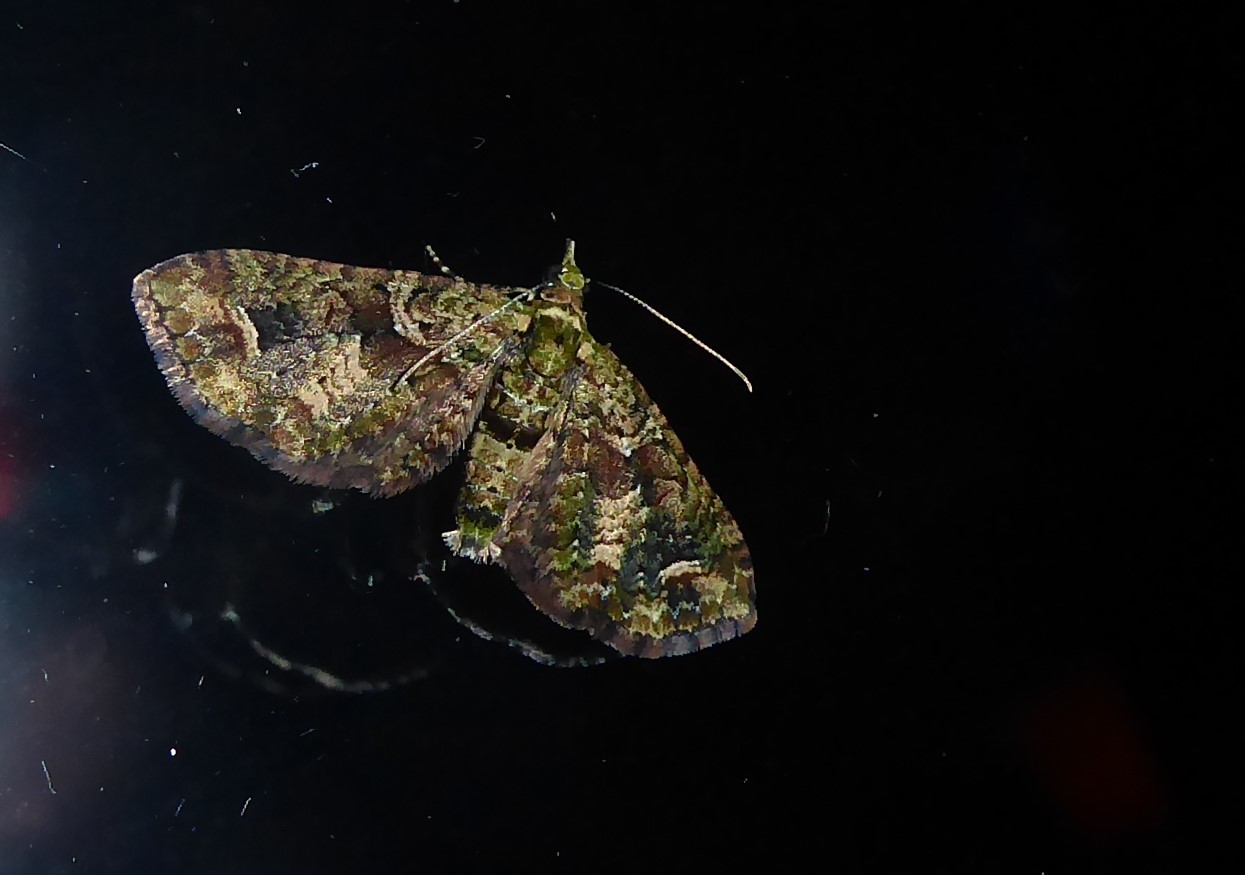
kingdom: Animalia
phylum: Arthropoda
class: Insecta
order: Lepidoptera
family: Geometridae
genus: Idaea
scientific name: Idaea mutanda
